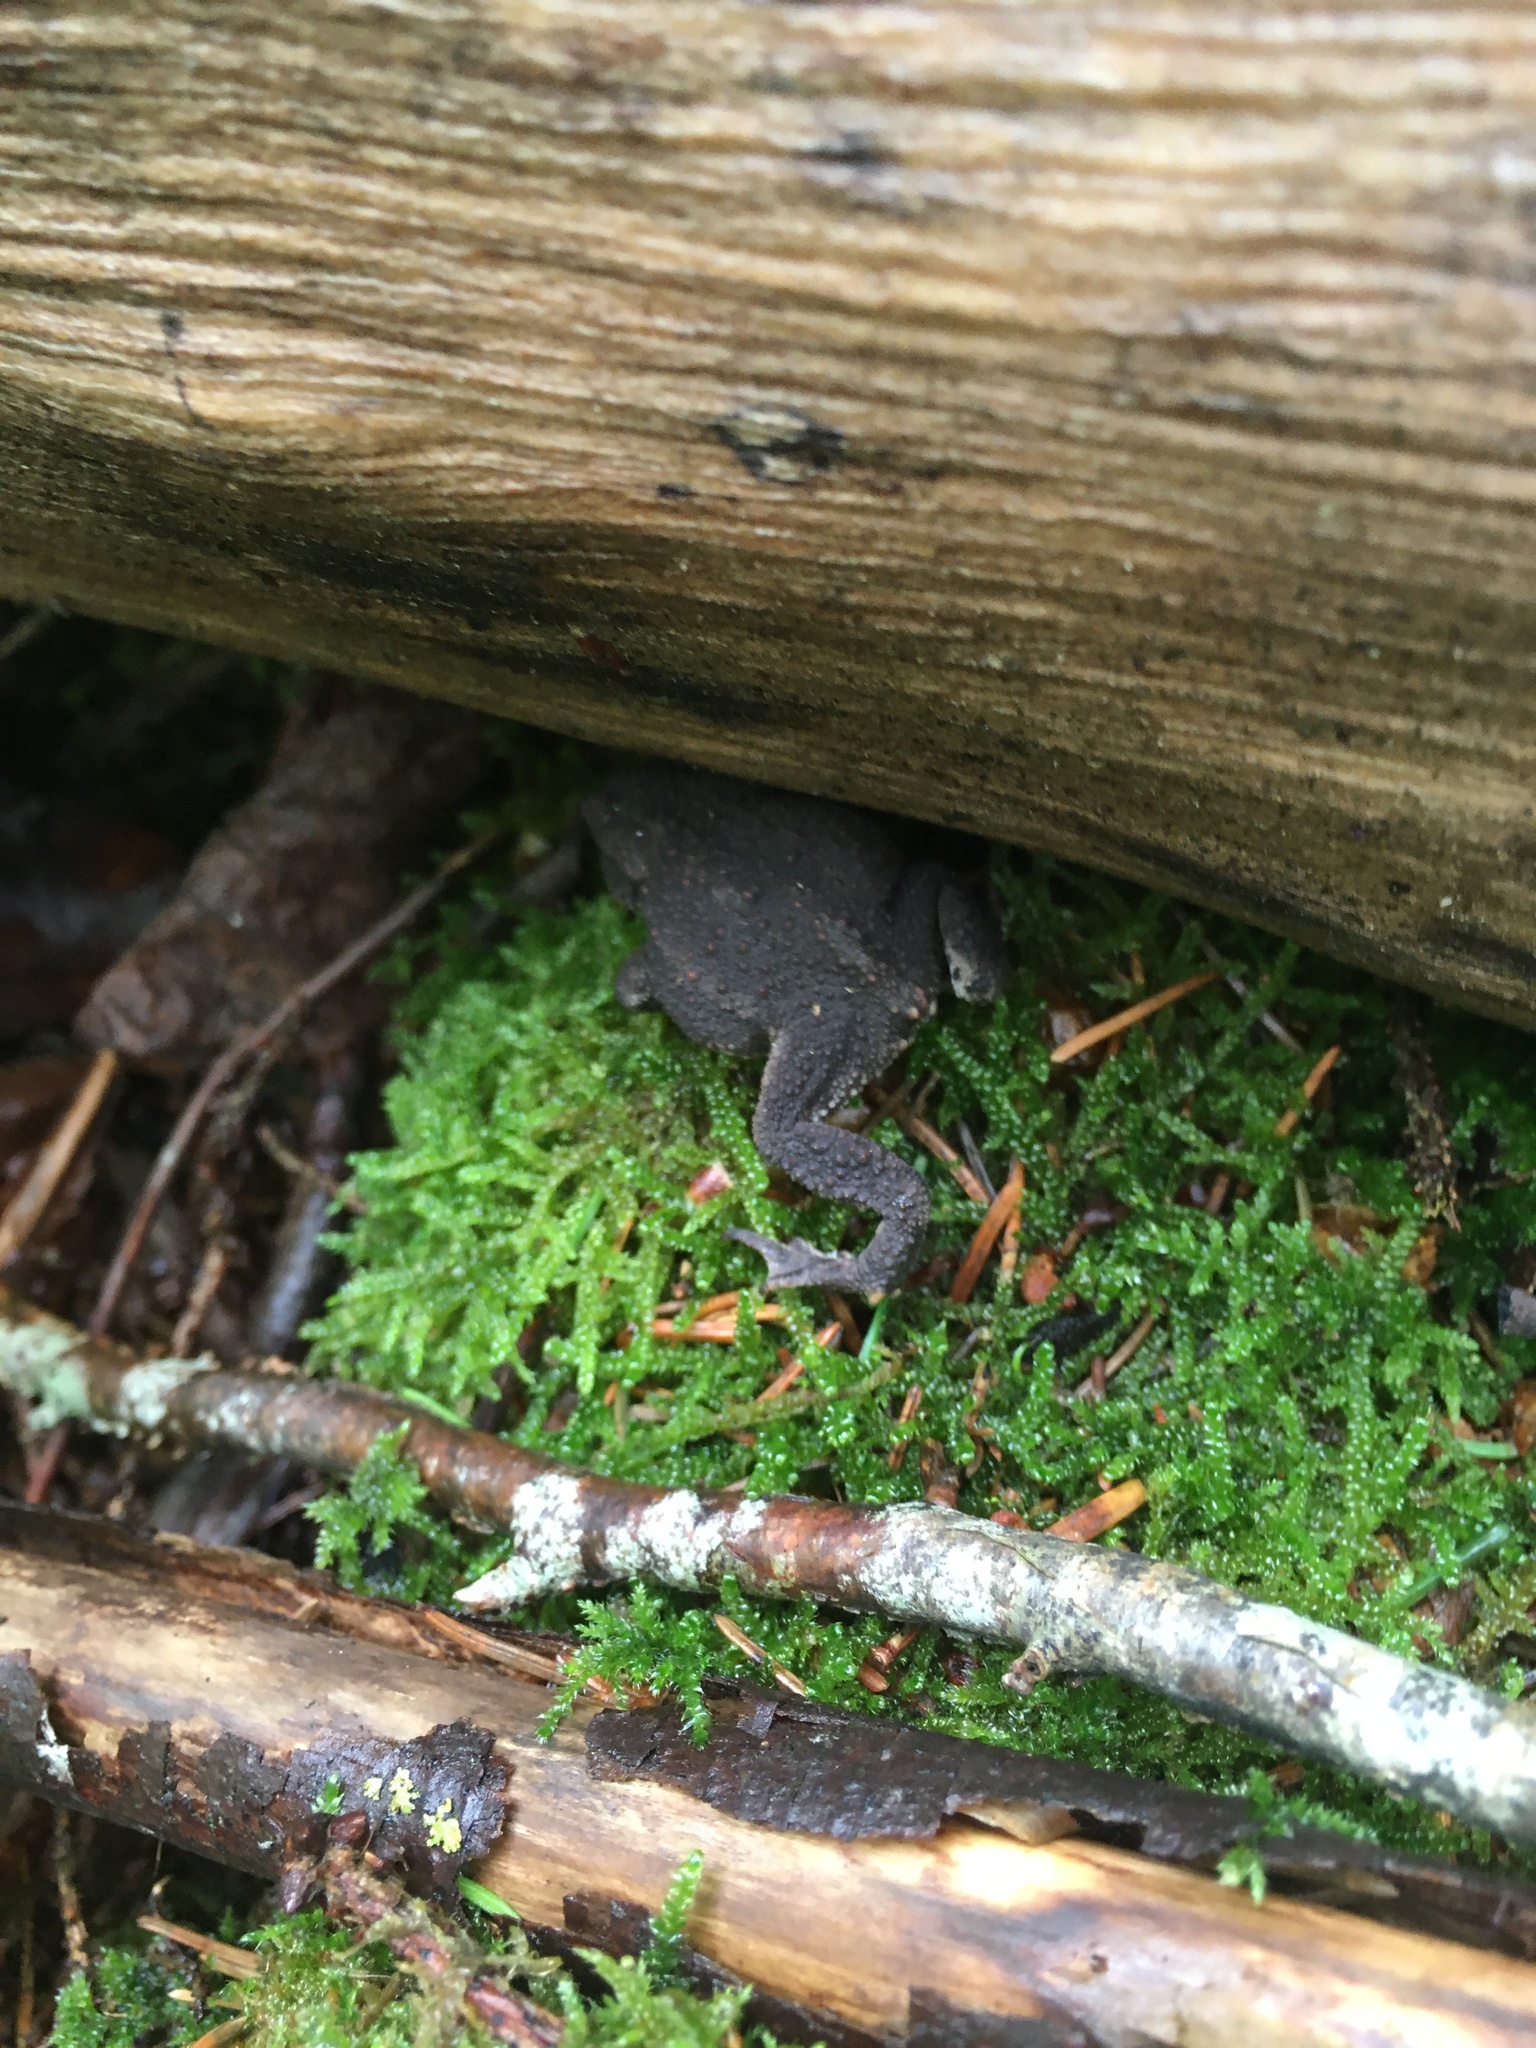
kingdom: Animalia
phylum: Chordata
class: Amphibia
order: Anura
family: Bufonidae
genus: Bufo
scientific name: Bufo bufo
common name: Common toad
